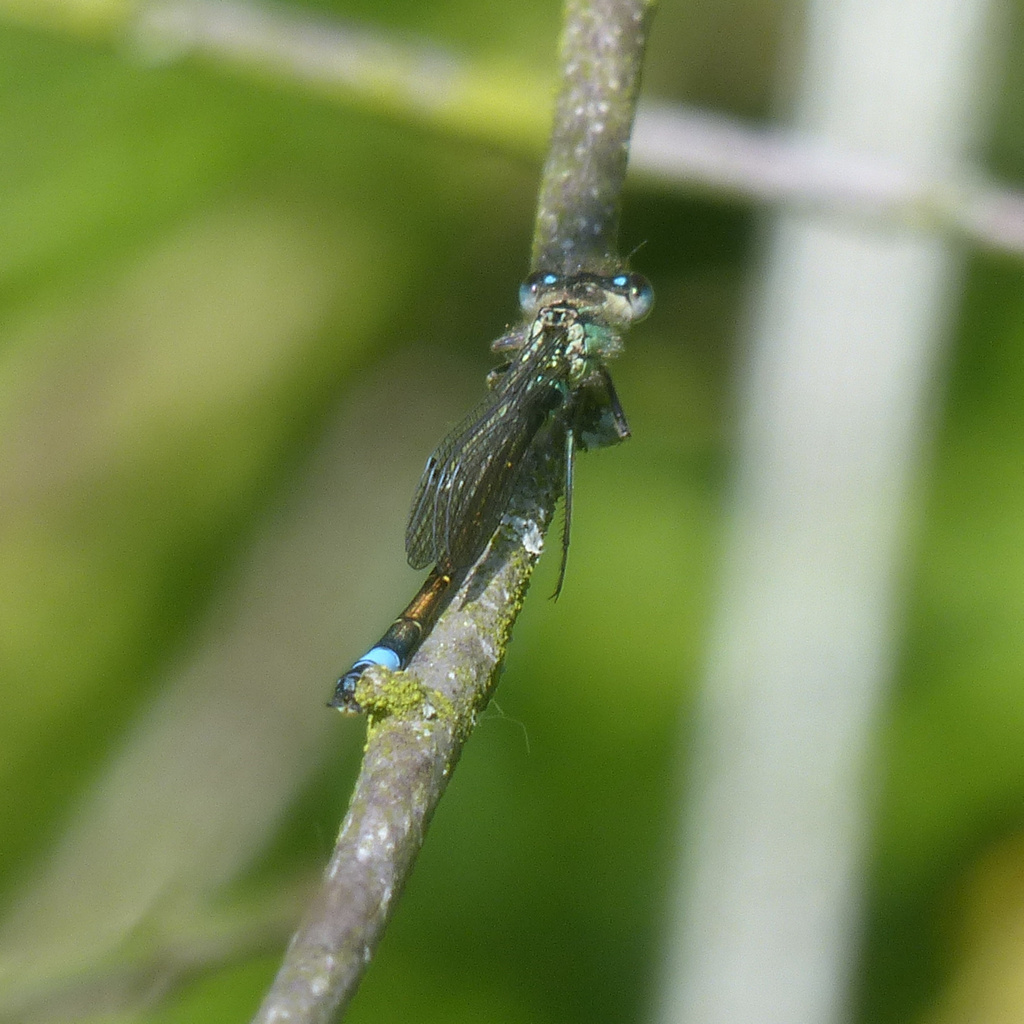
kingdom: Animalia
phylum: Arthropoda
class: Insecta
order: Odonata
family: Coenagrionidae
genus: Ischnura
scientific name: Ischnura elegans
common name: Blue-tailed damselfly
